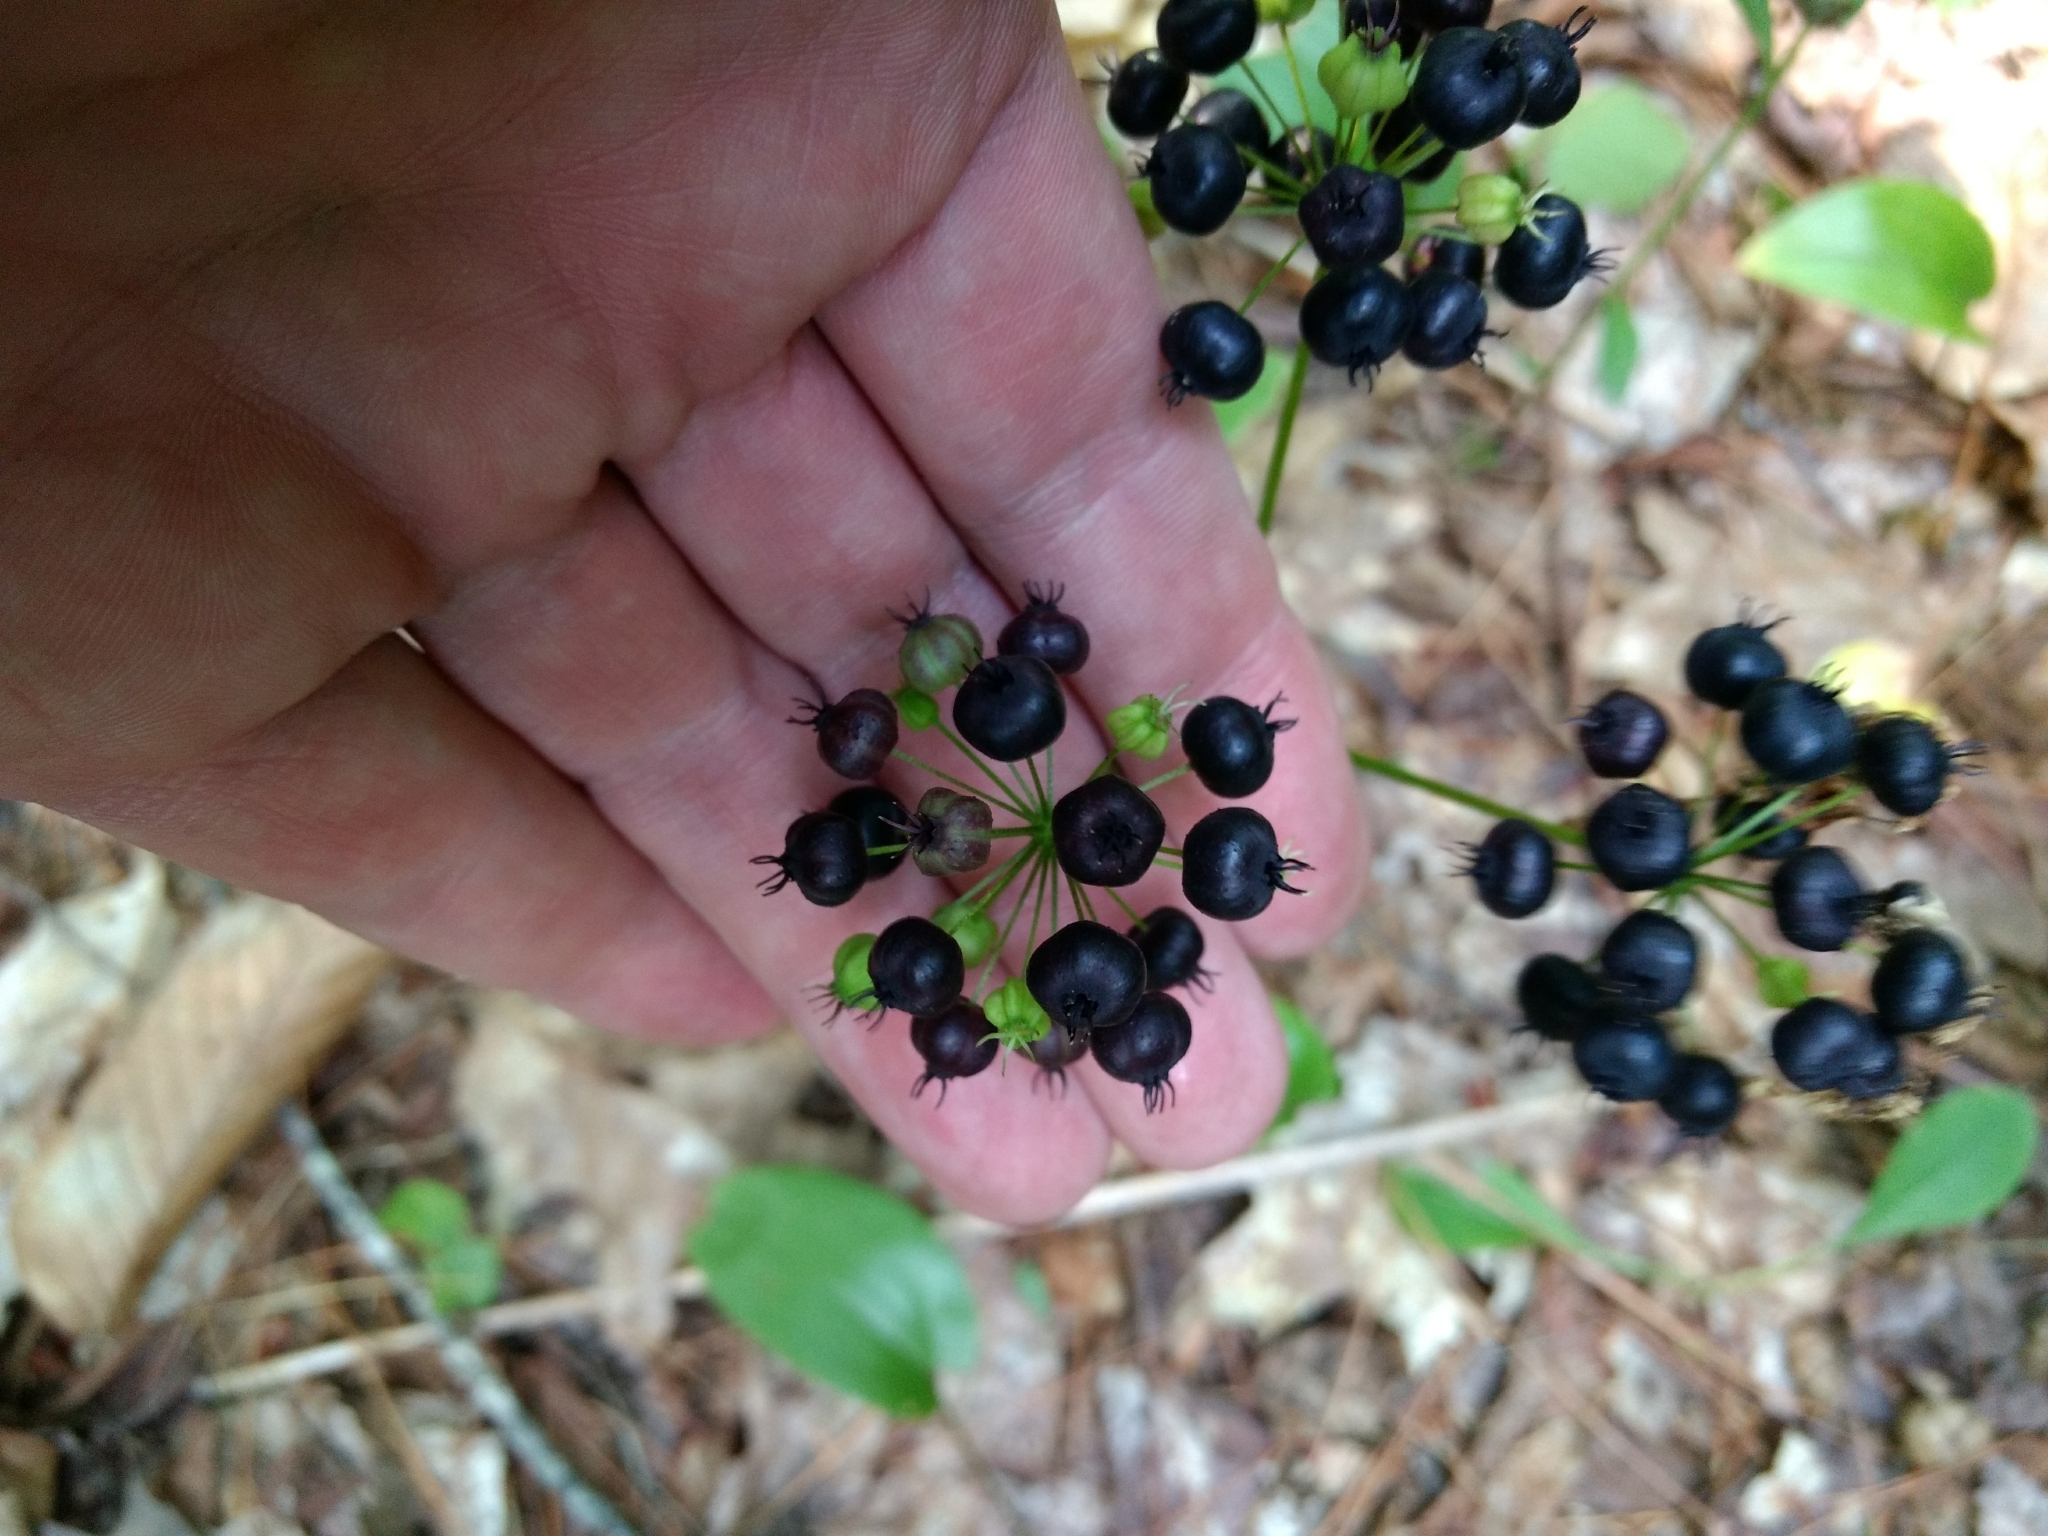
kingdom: Plantae
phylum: Tracheophyta
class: Magnoliopsida
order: Apiales
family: Araliaceae
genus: Aralia
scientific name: Aralia nudicaulis
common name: Wild sarsaparilla
